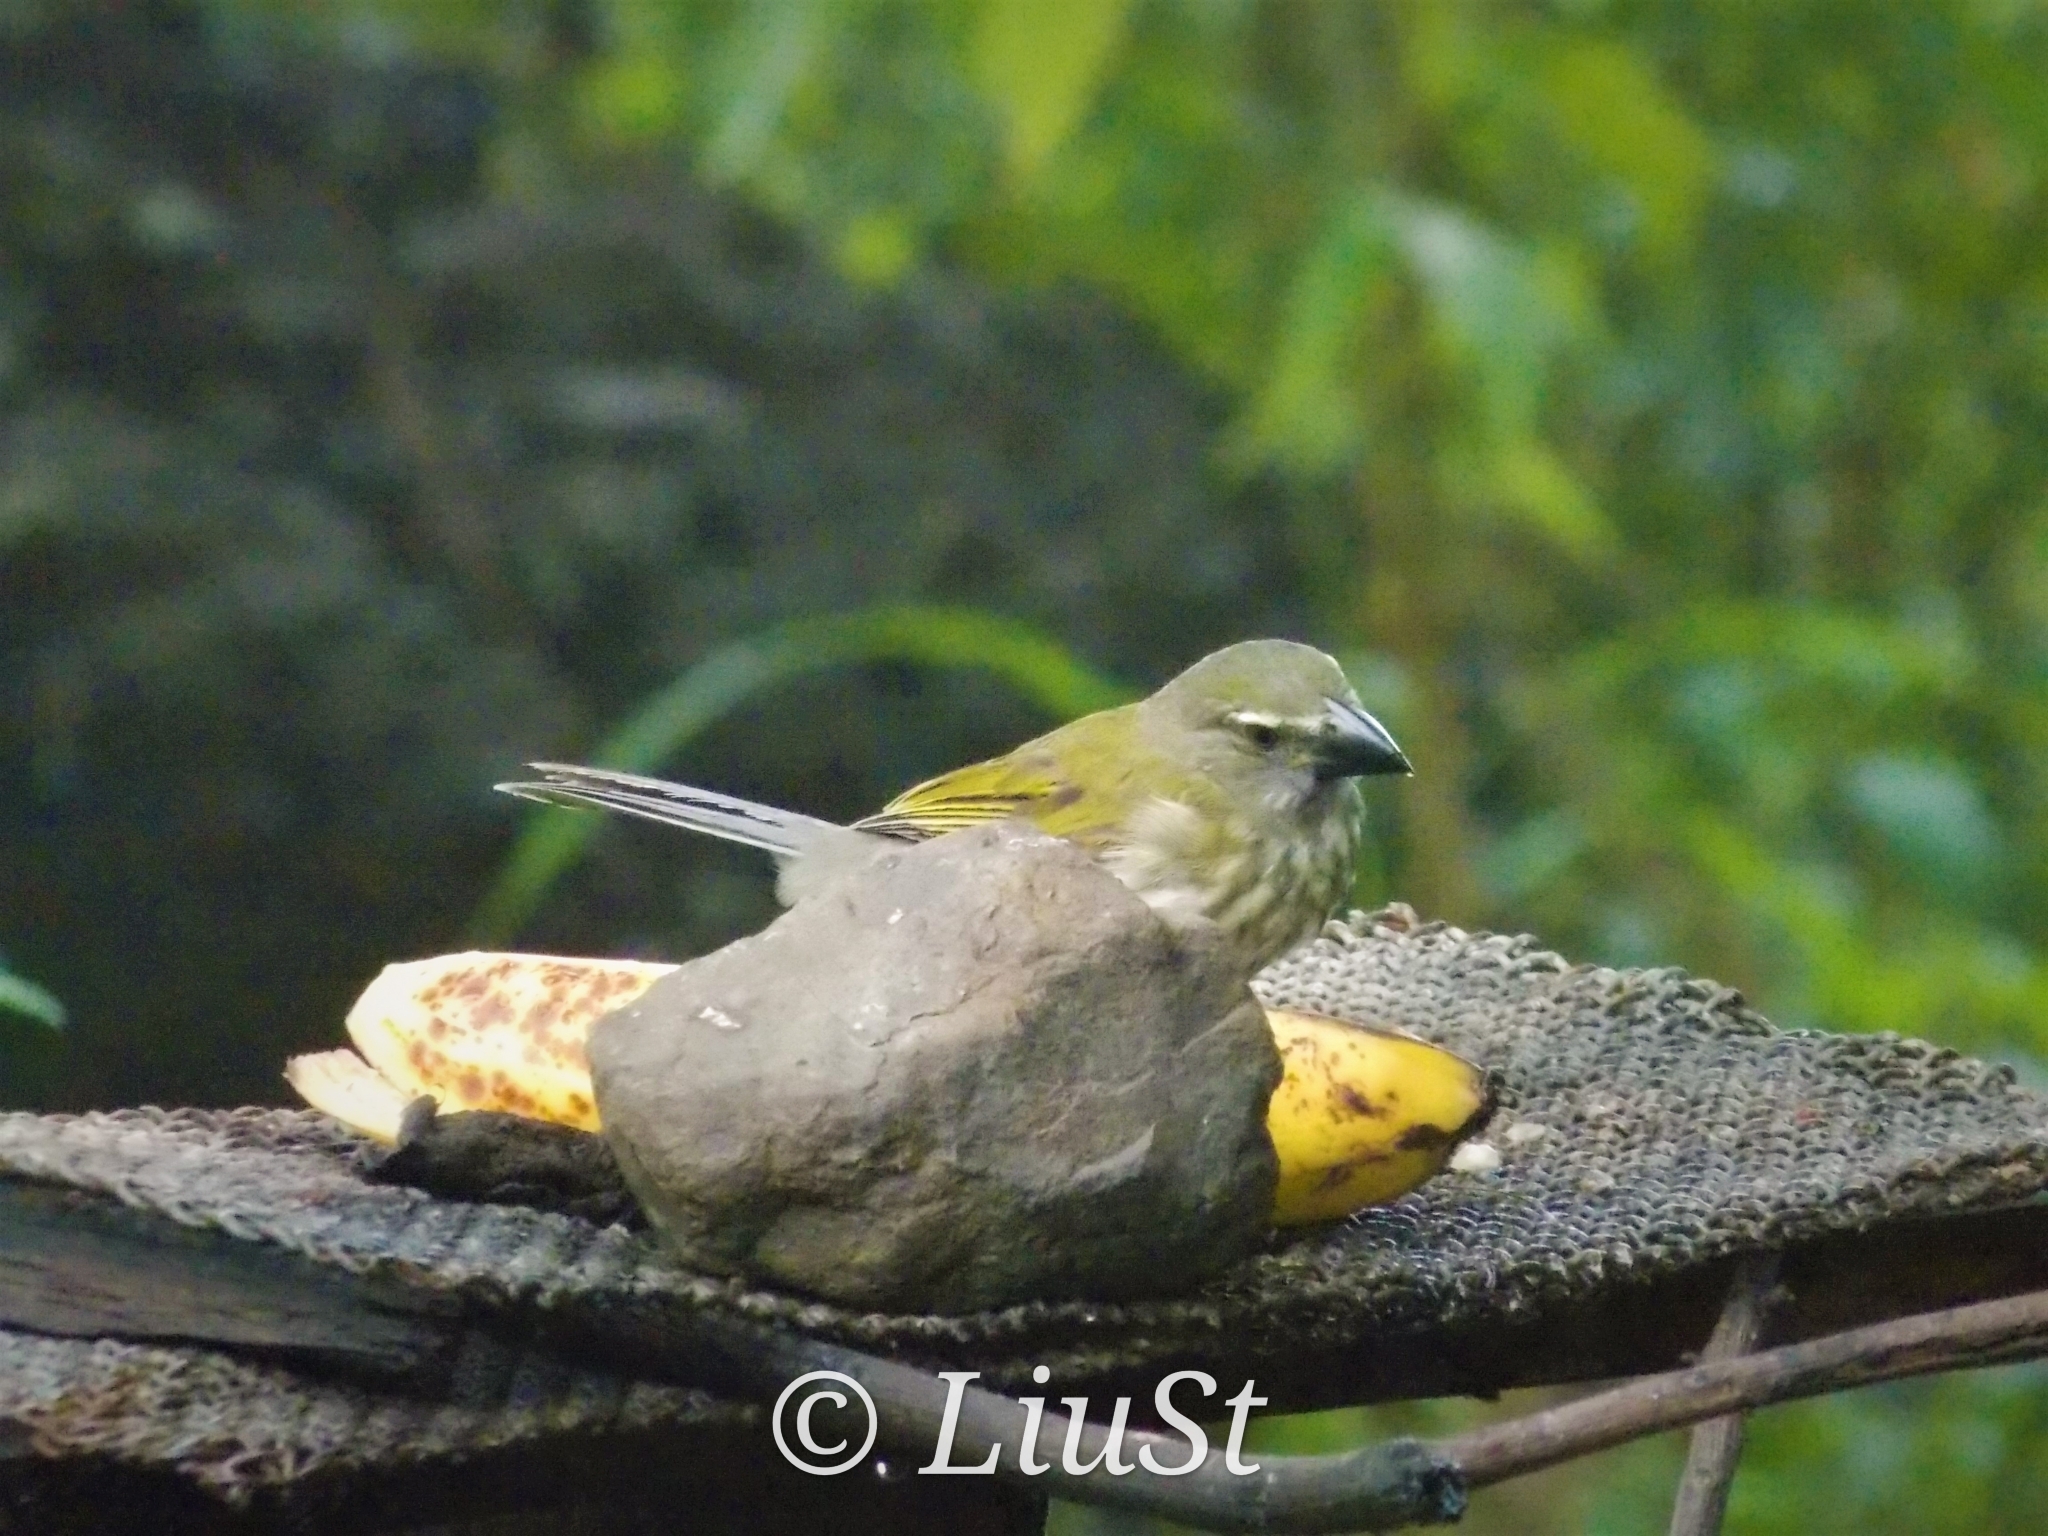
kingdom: Animalia
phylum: Chordata
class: Aves
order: Passeriformes
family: Thraupidae
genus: Saltator
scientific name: Saltator striatipectus
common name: Streaked saltator
